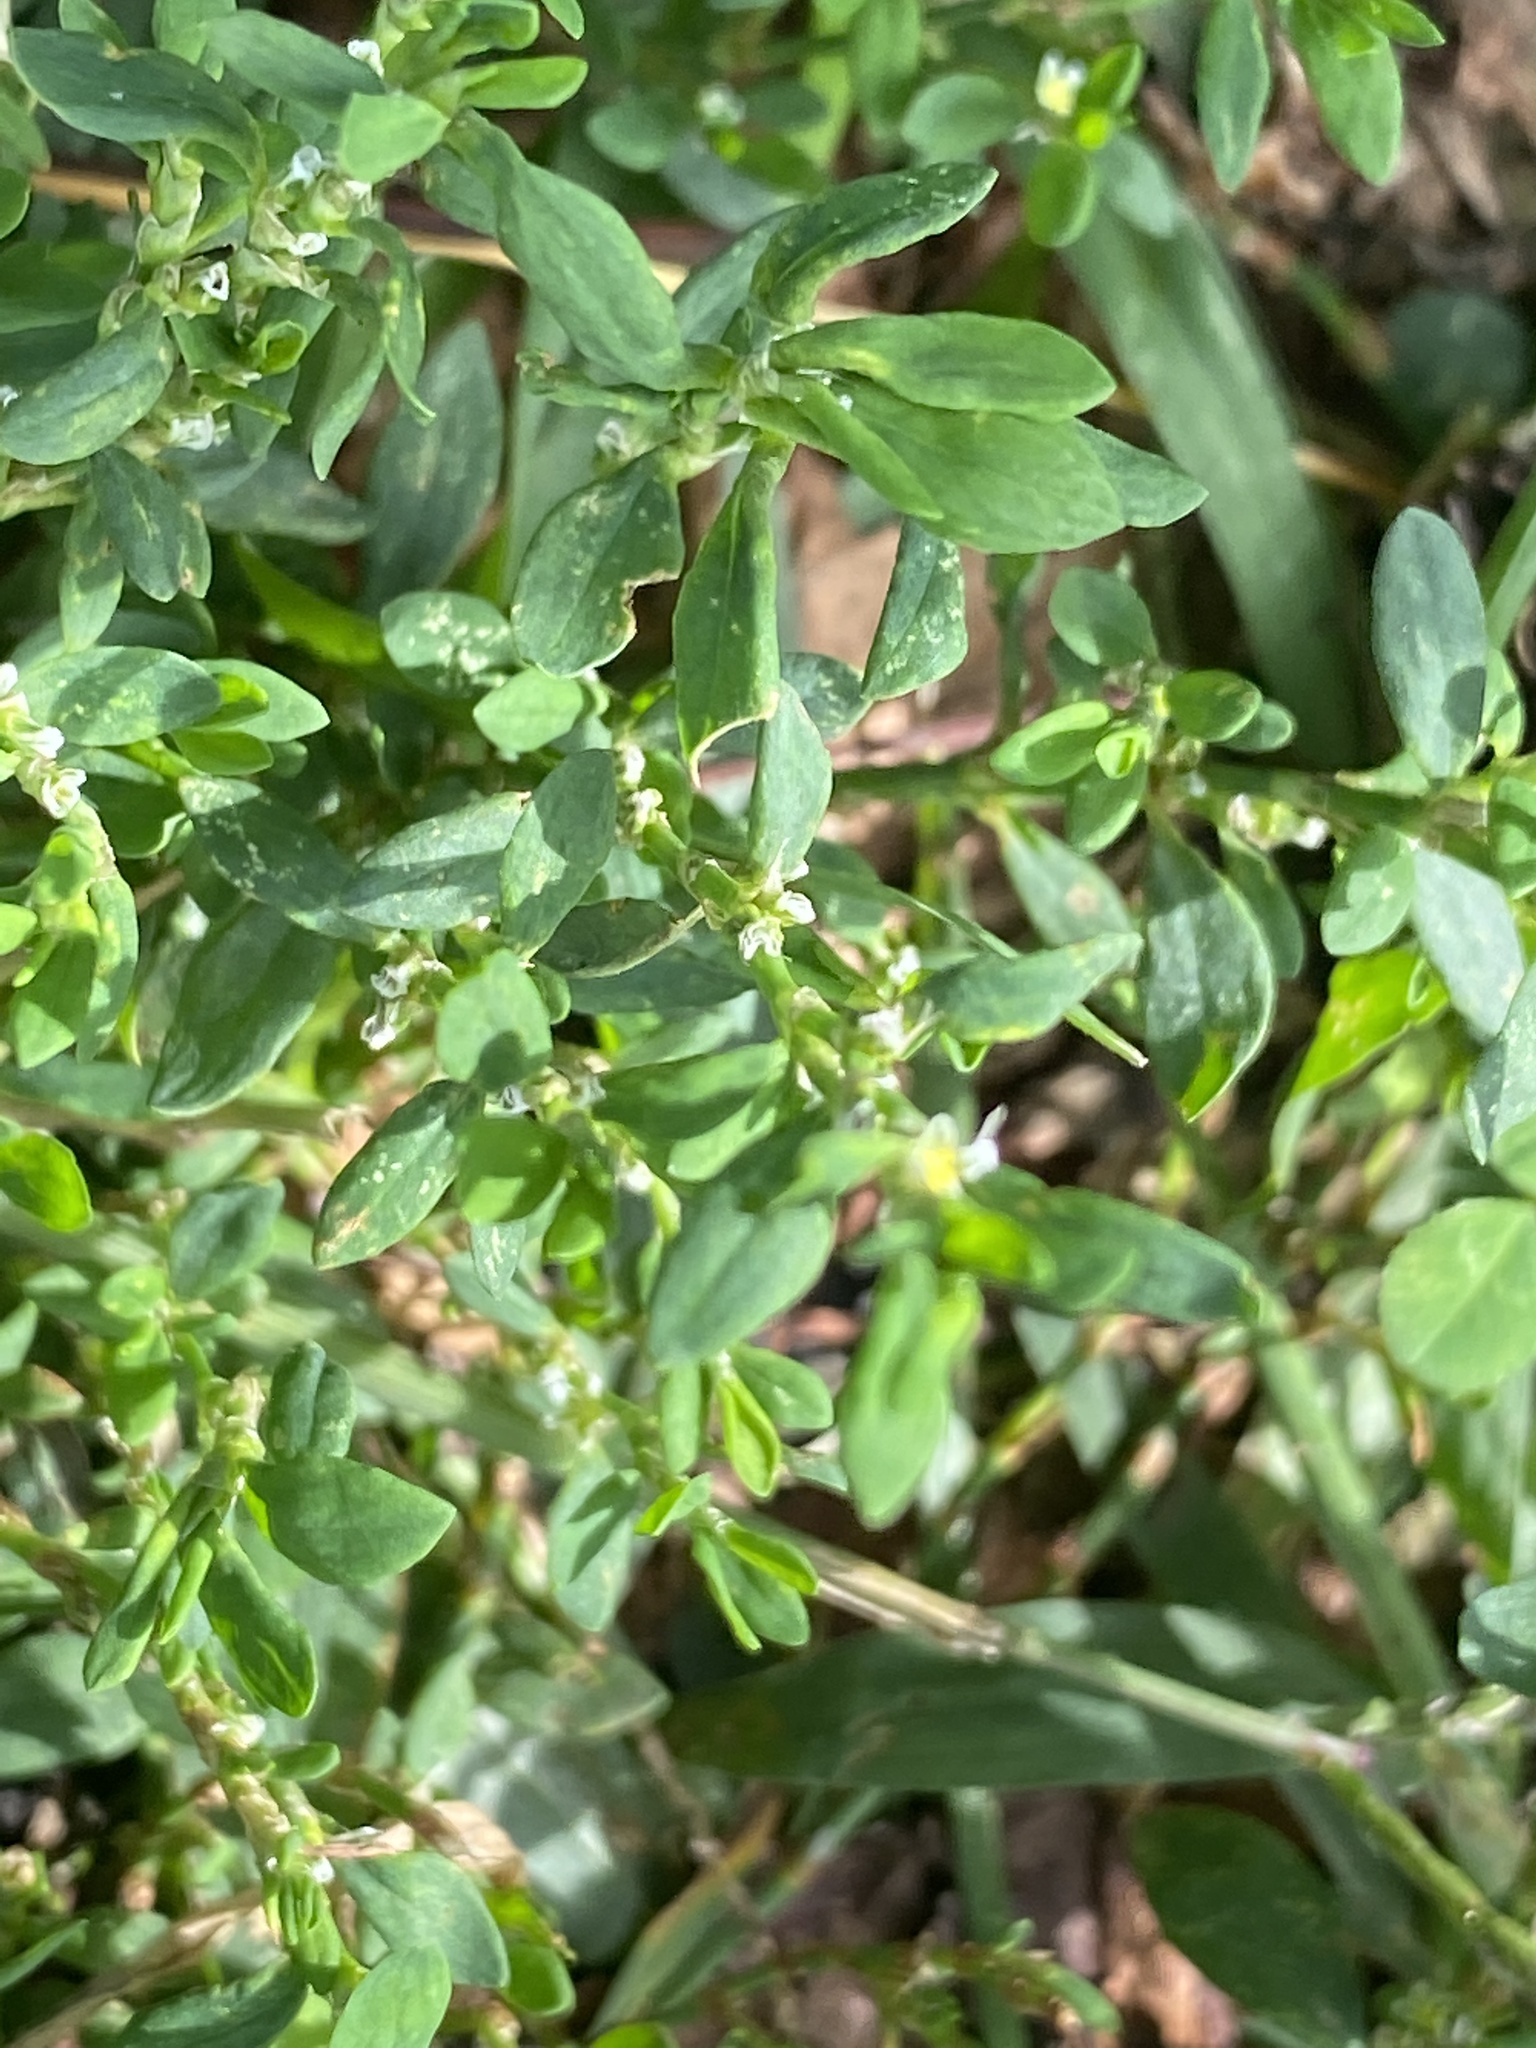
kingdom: Plantae
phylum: Tracheophyta
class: Magnoliopsida
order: Caryophyllales
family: Polygonaceae
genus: Polygonum
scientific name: Polygonum aviculare
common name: Prostrate knotweed
